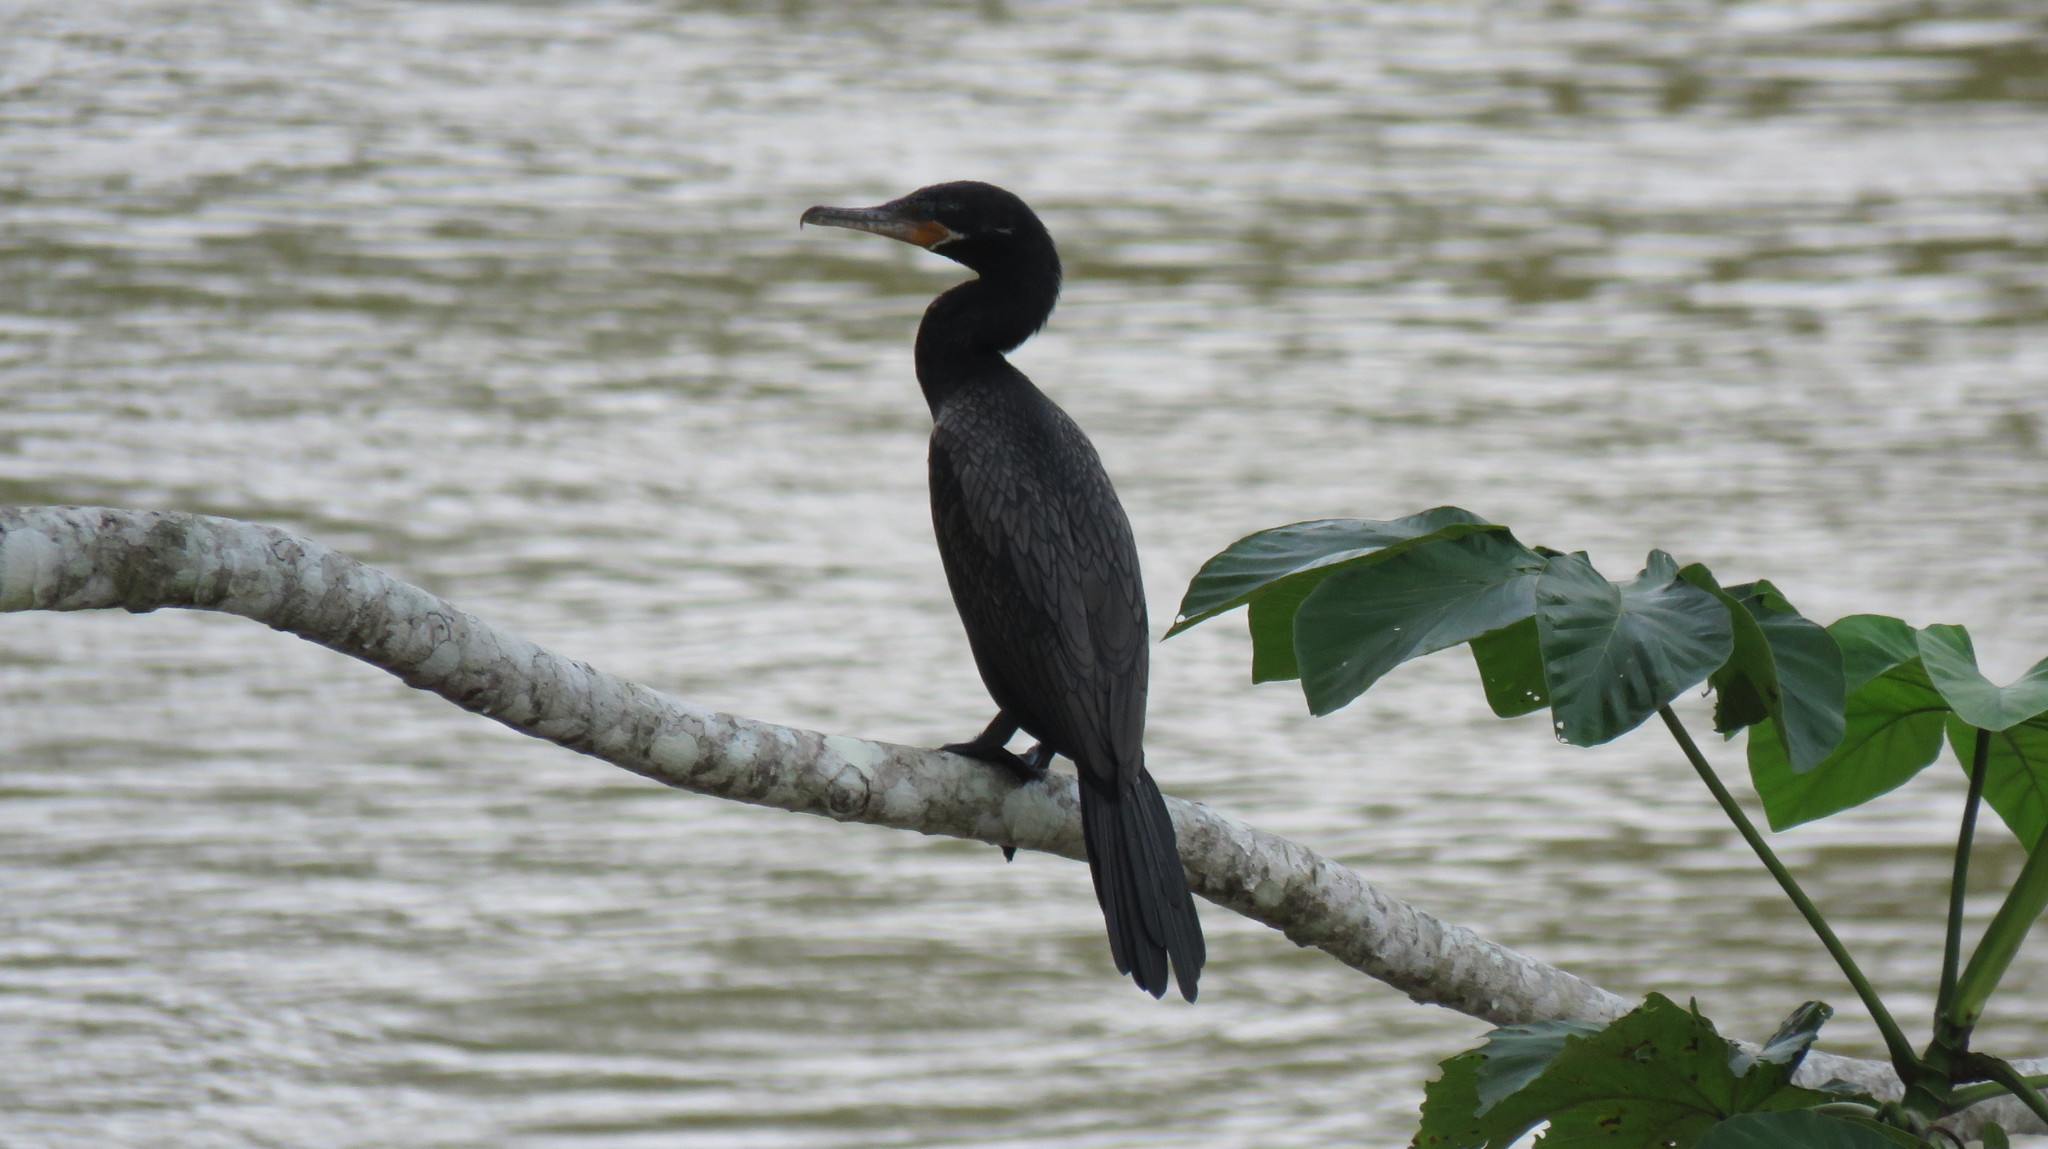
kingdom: Animalia
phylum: Chordata
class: Aves
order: Suliformes
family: Phalacrocoracidae
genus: Phalacrocorax
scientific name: Phalacrocorax brasilianus
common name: Neotropic cormorant
